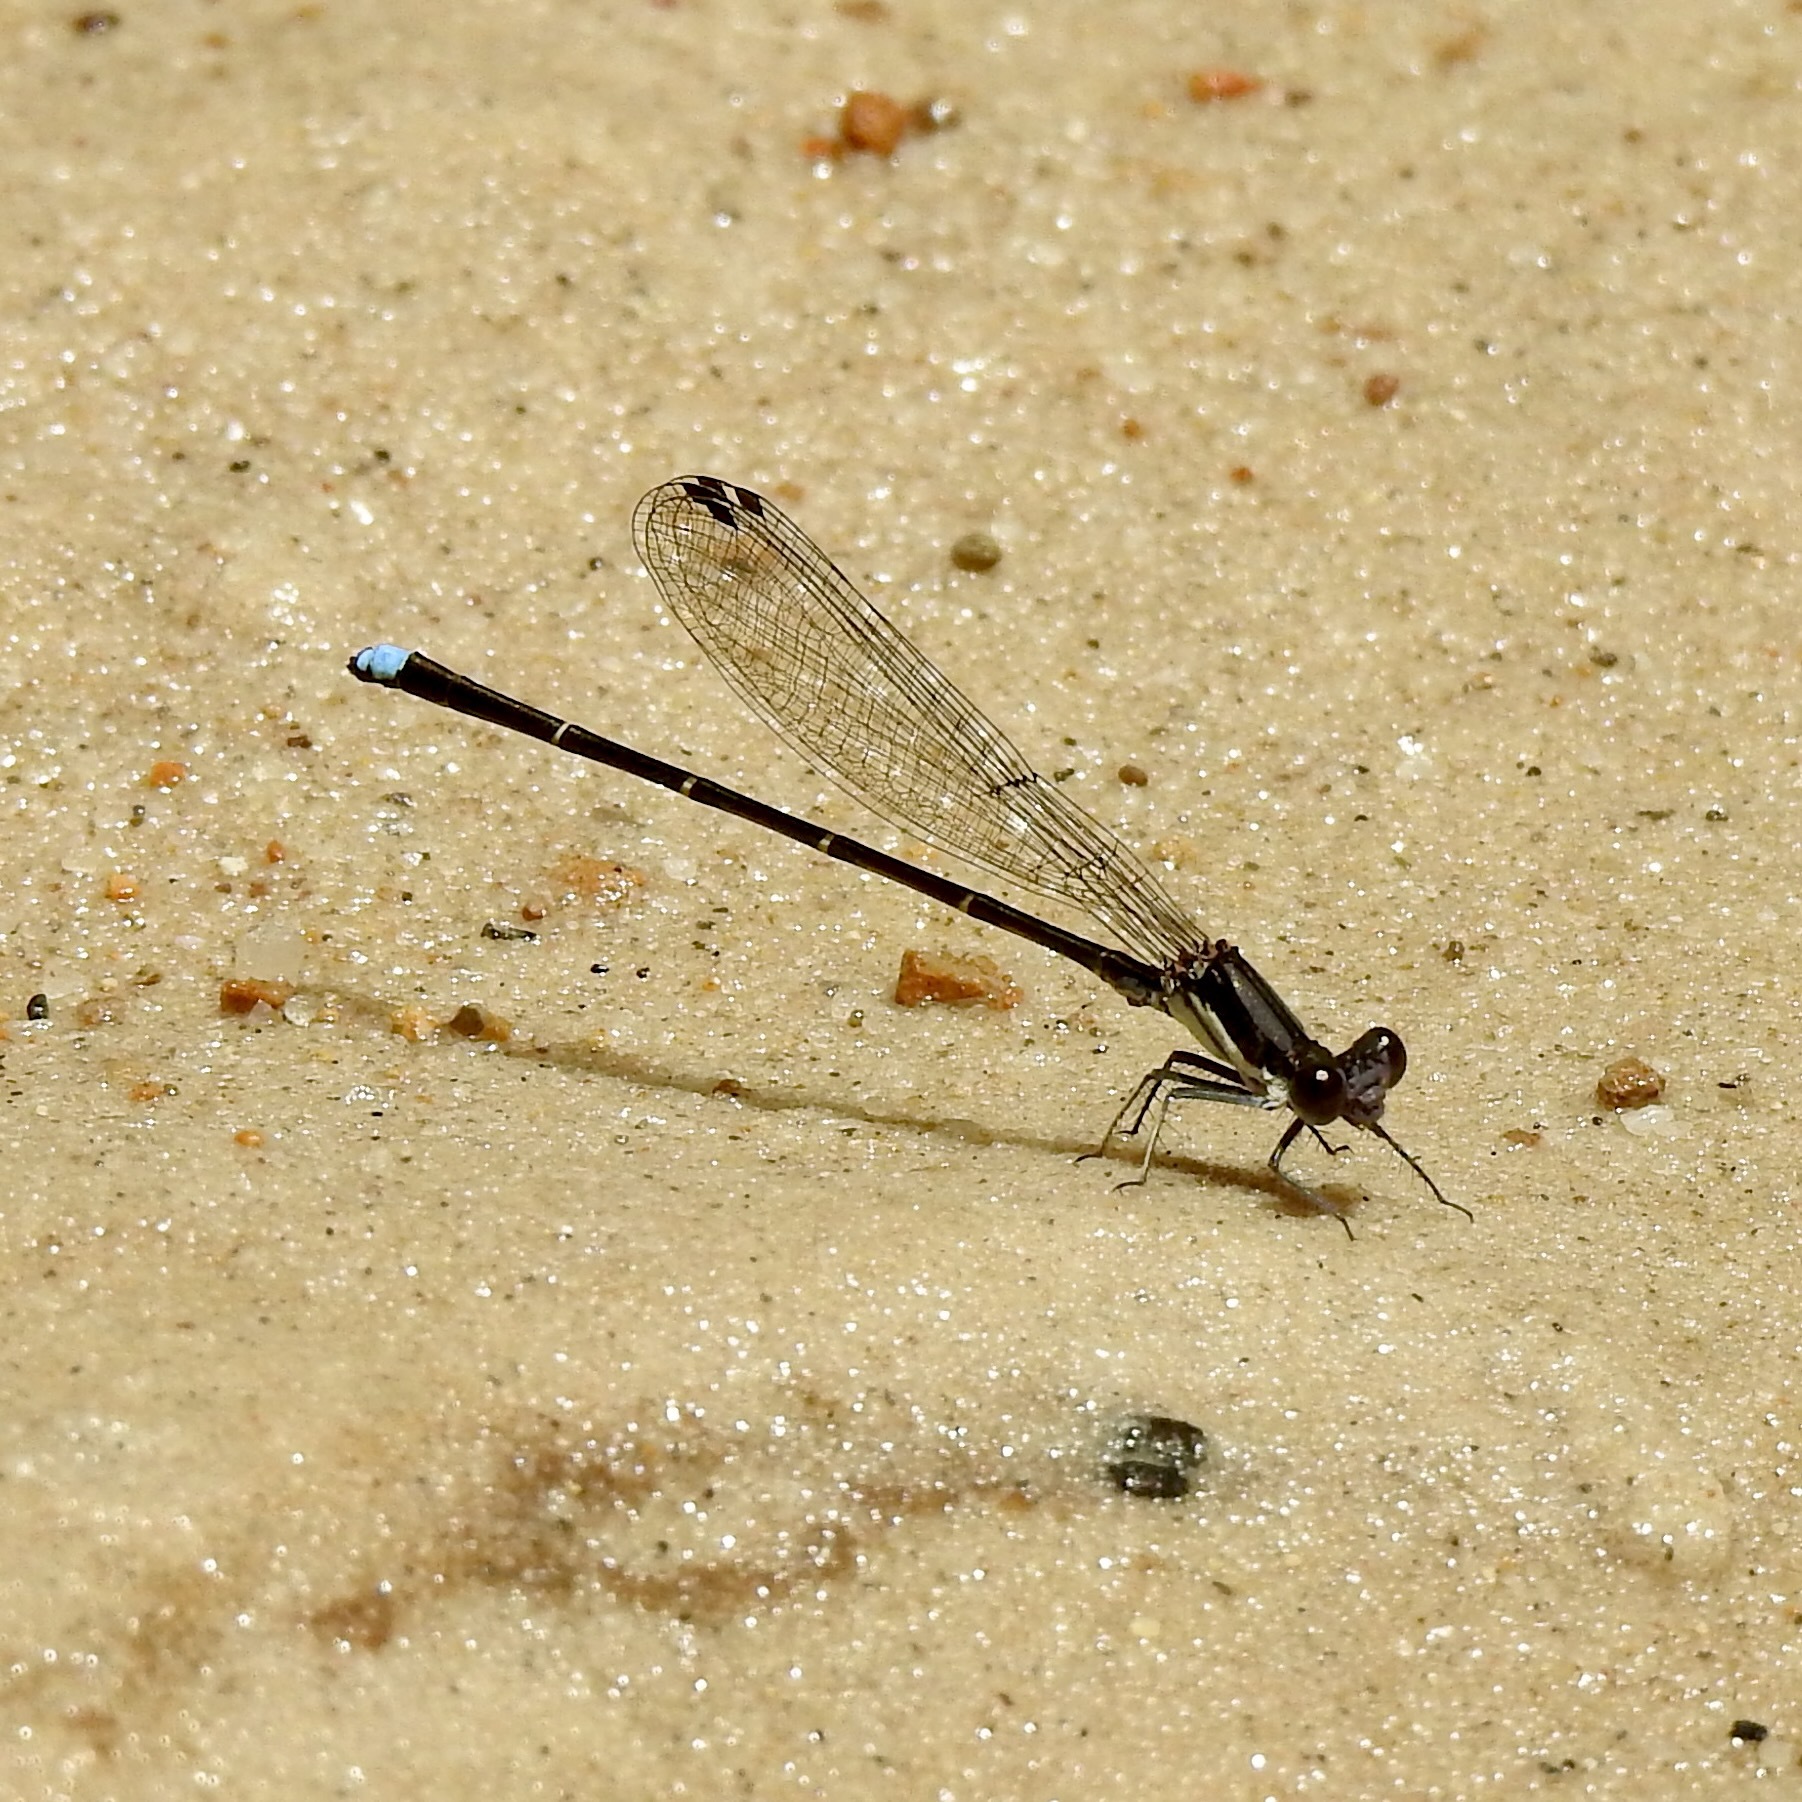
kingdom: Animalia
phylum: Arthropoda
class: Insecta
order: Odonata
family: Coenagrionidae
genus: Argia
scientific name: Argia tibialis
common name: Blue-tipped dancer
